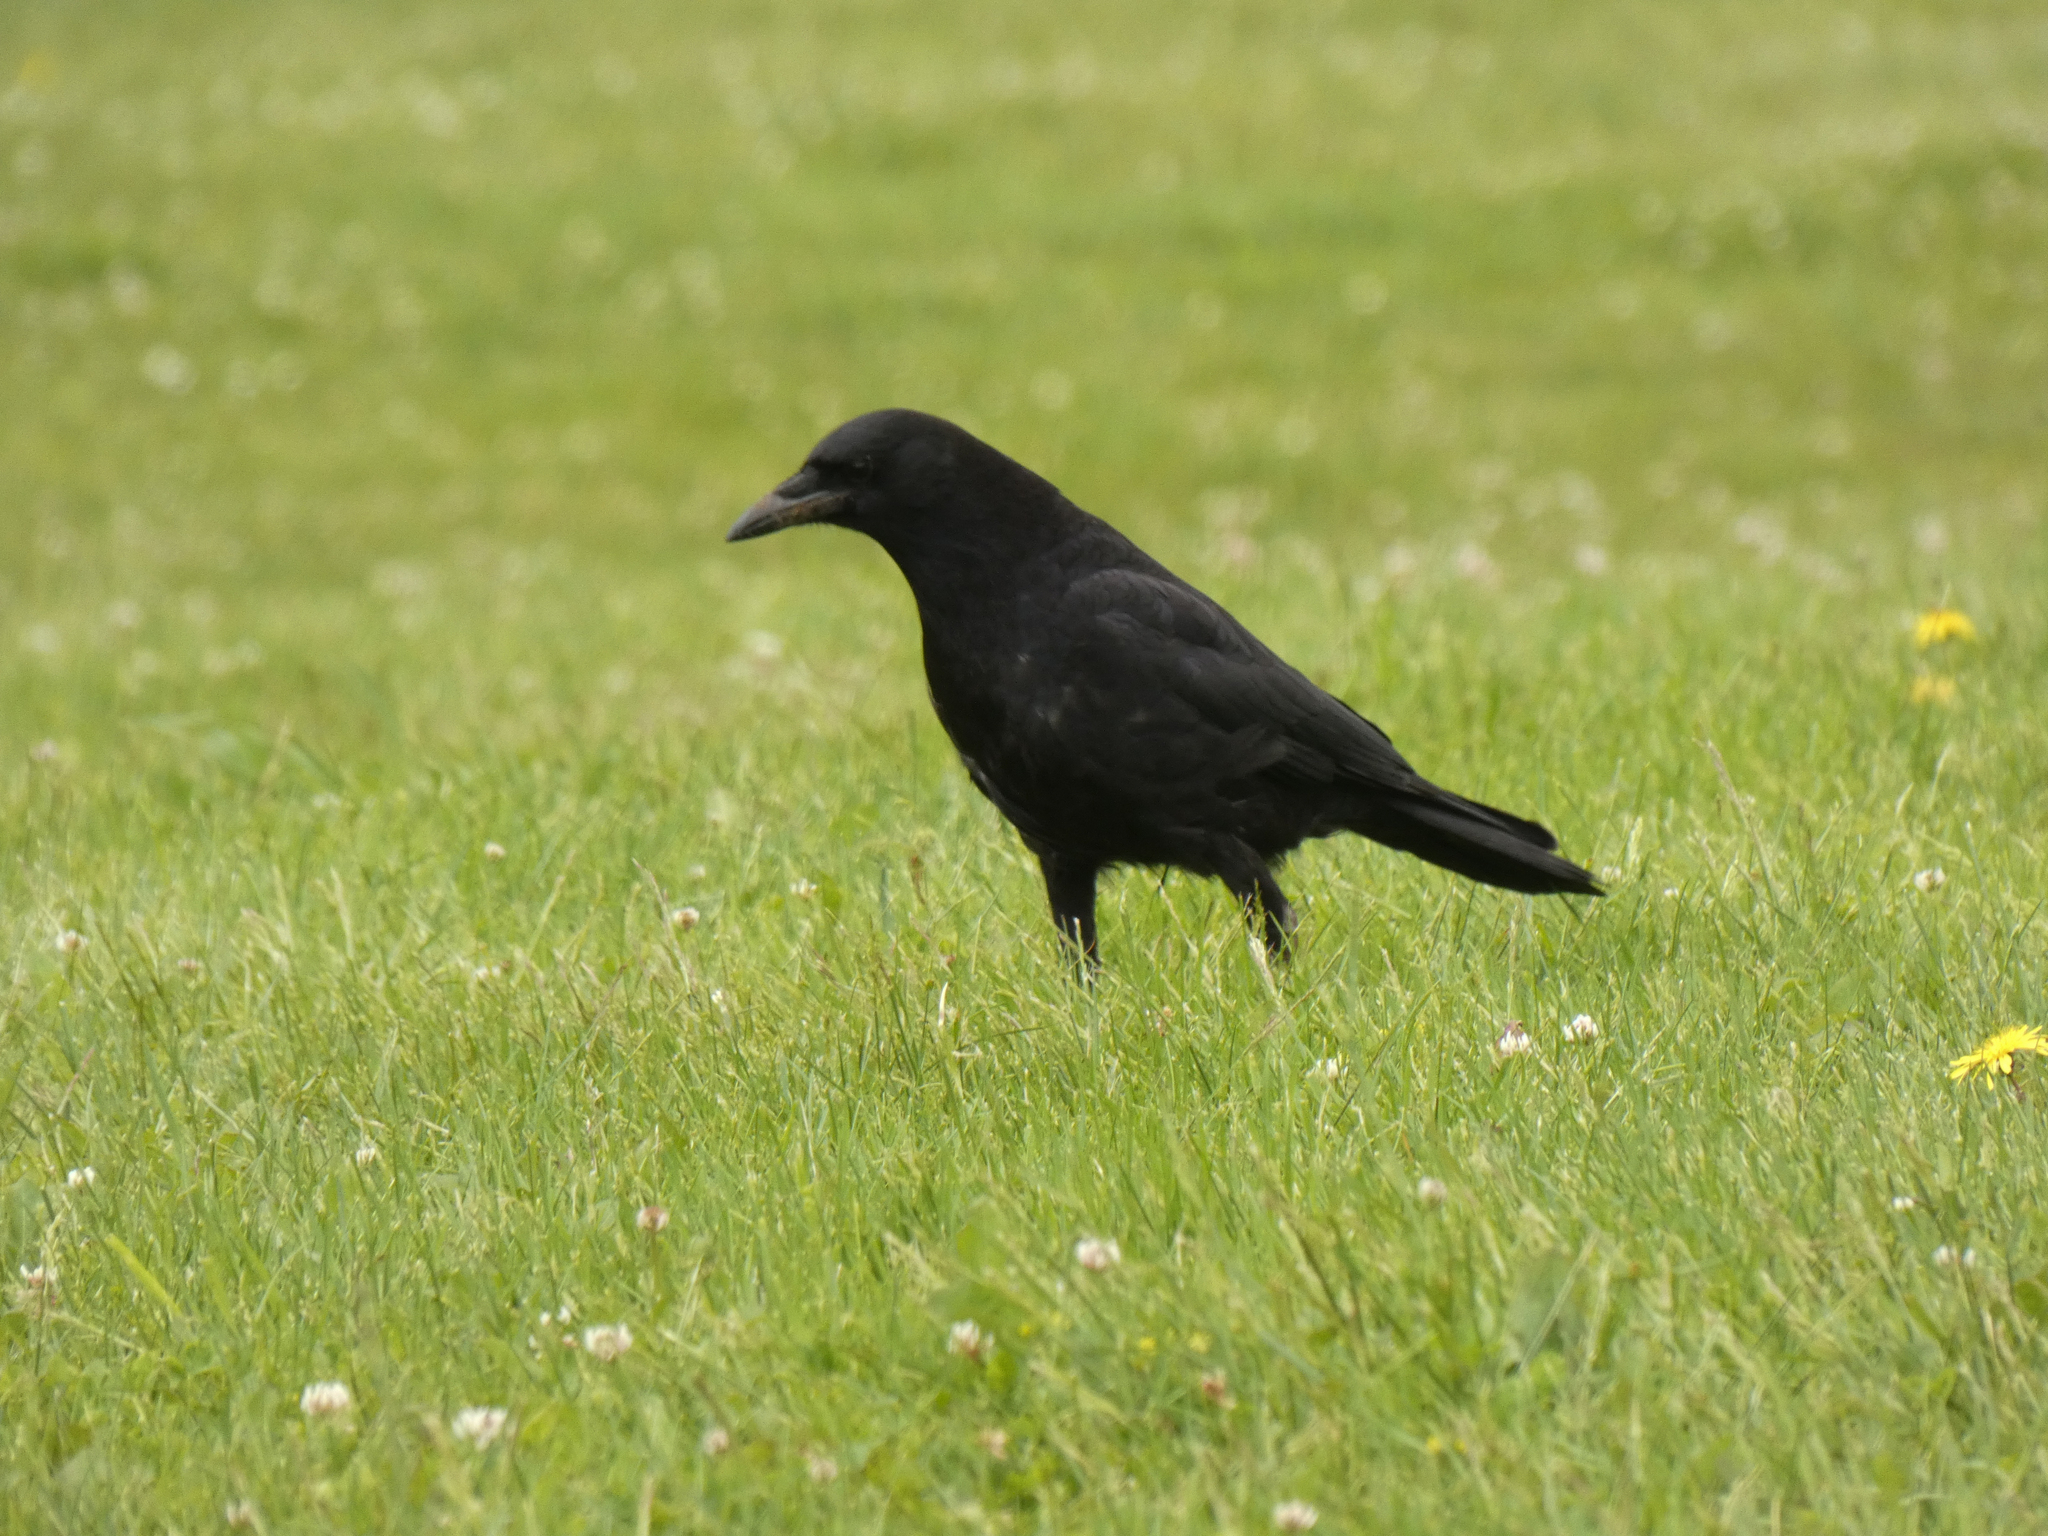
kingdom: Animalia
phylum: Chordata
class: Aves
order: Passeriformes
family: Corvidae
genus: Corvus
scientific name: Corvus brachyrhynchos
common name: American crow
